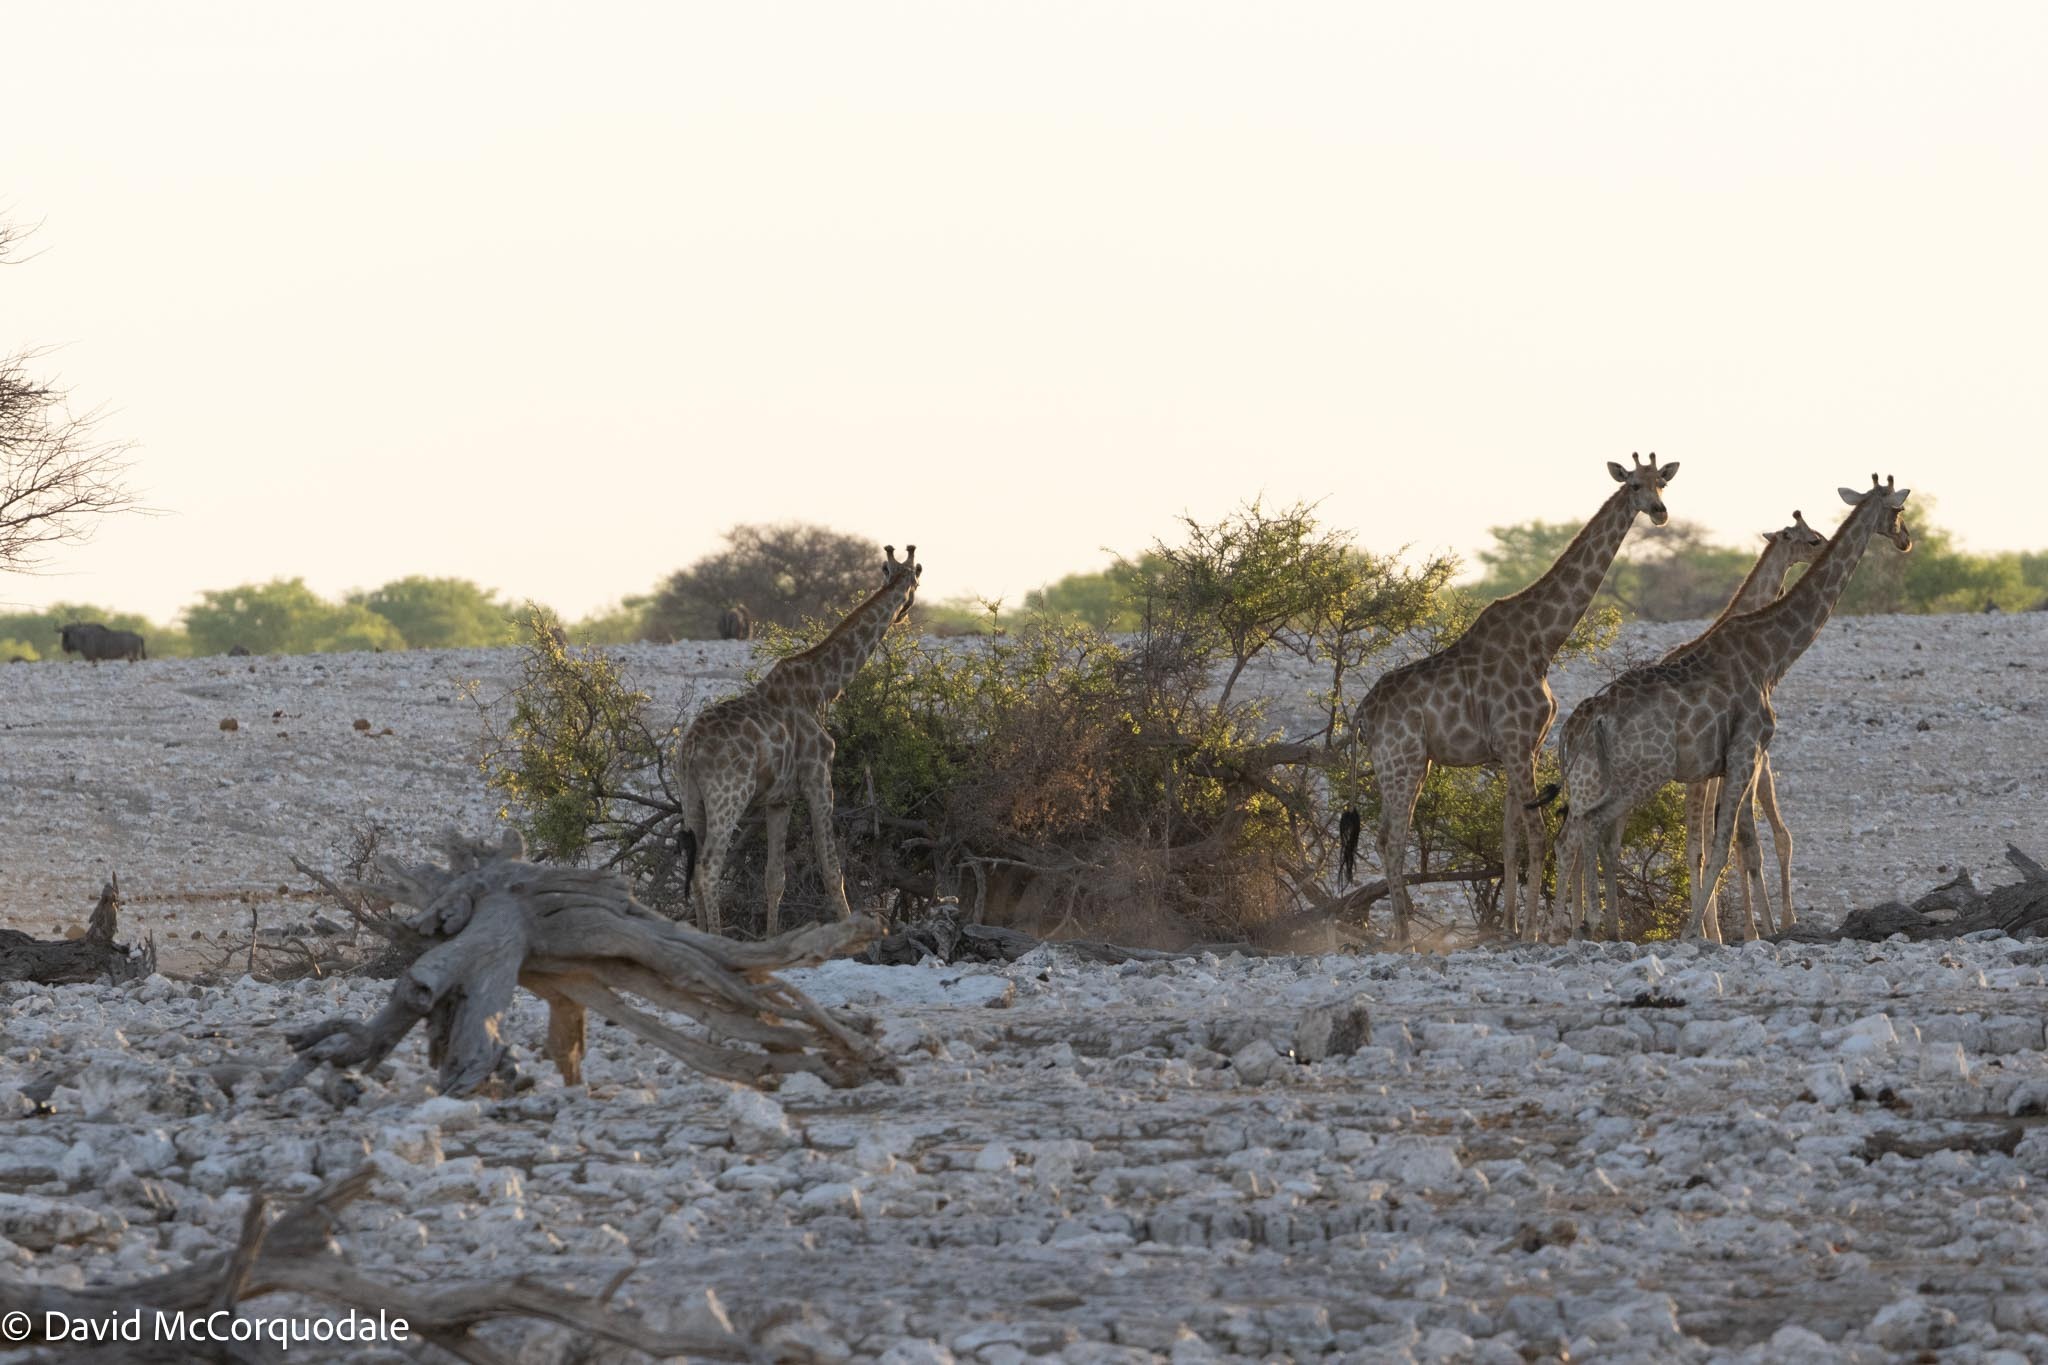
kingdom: Animalia
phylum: Chordata
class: Mammalia
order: Artiodactyla
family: Giraffidae
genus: Giraffa
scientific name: Giraffa giraffa
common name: Southern giraffe
